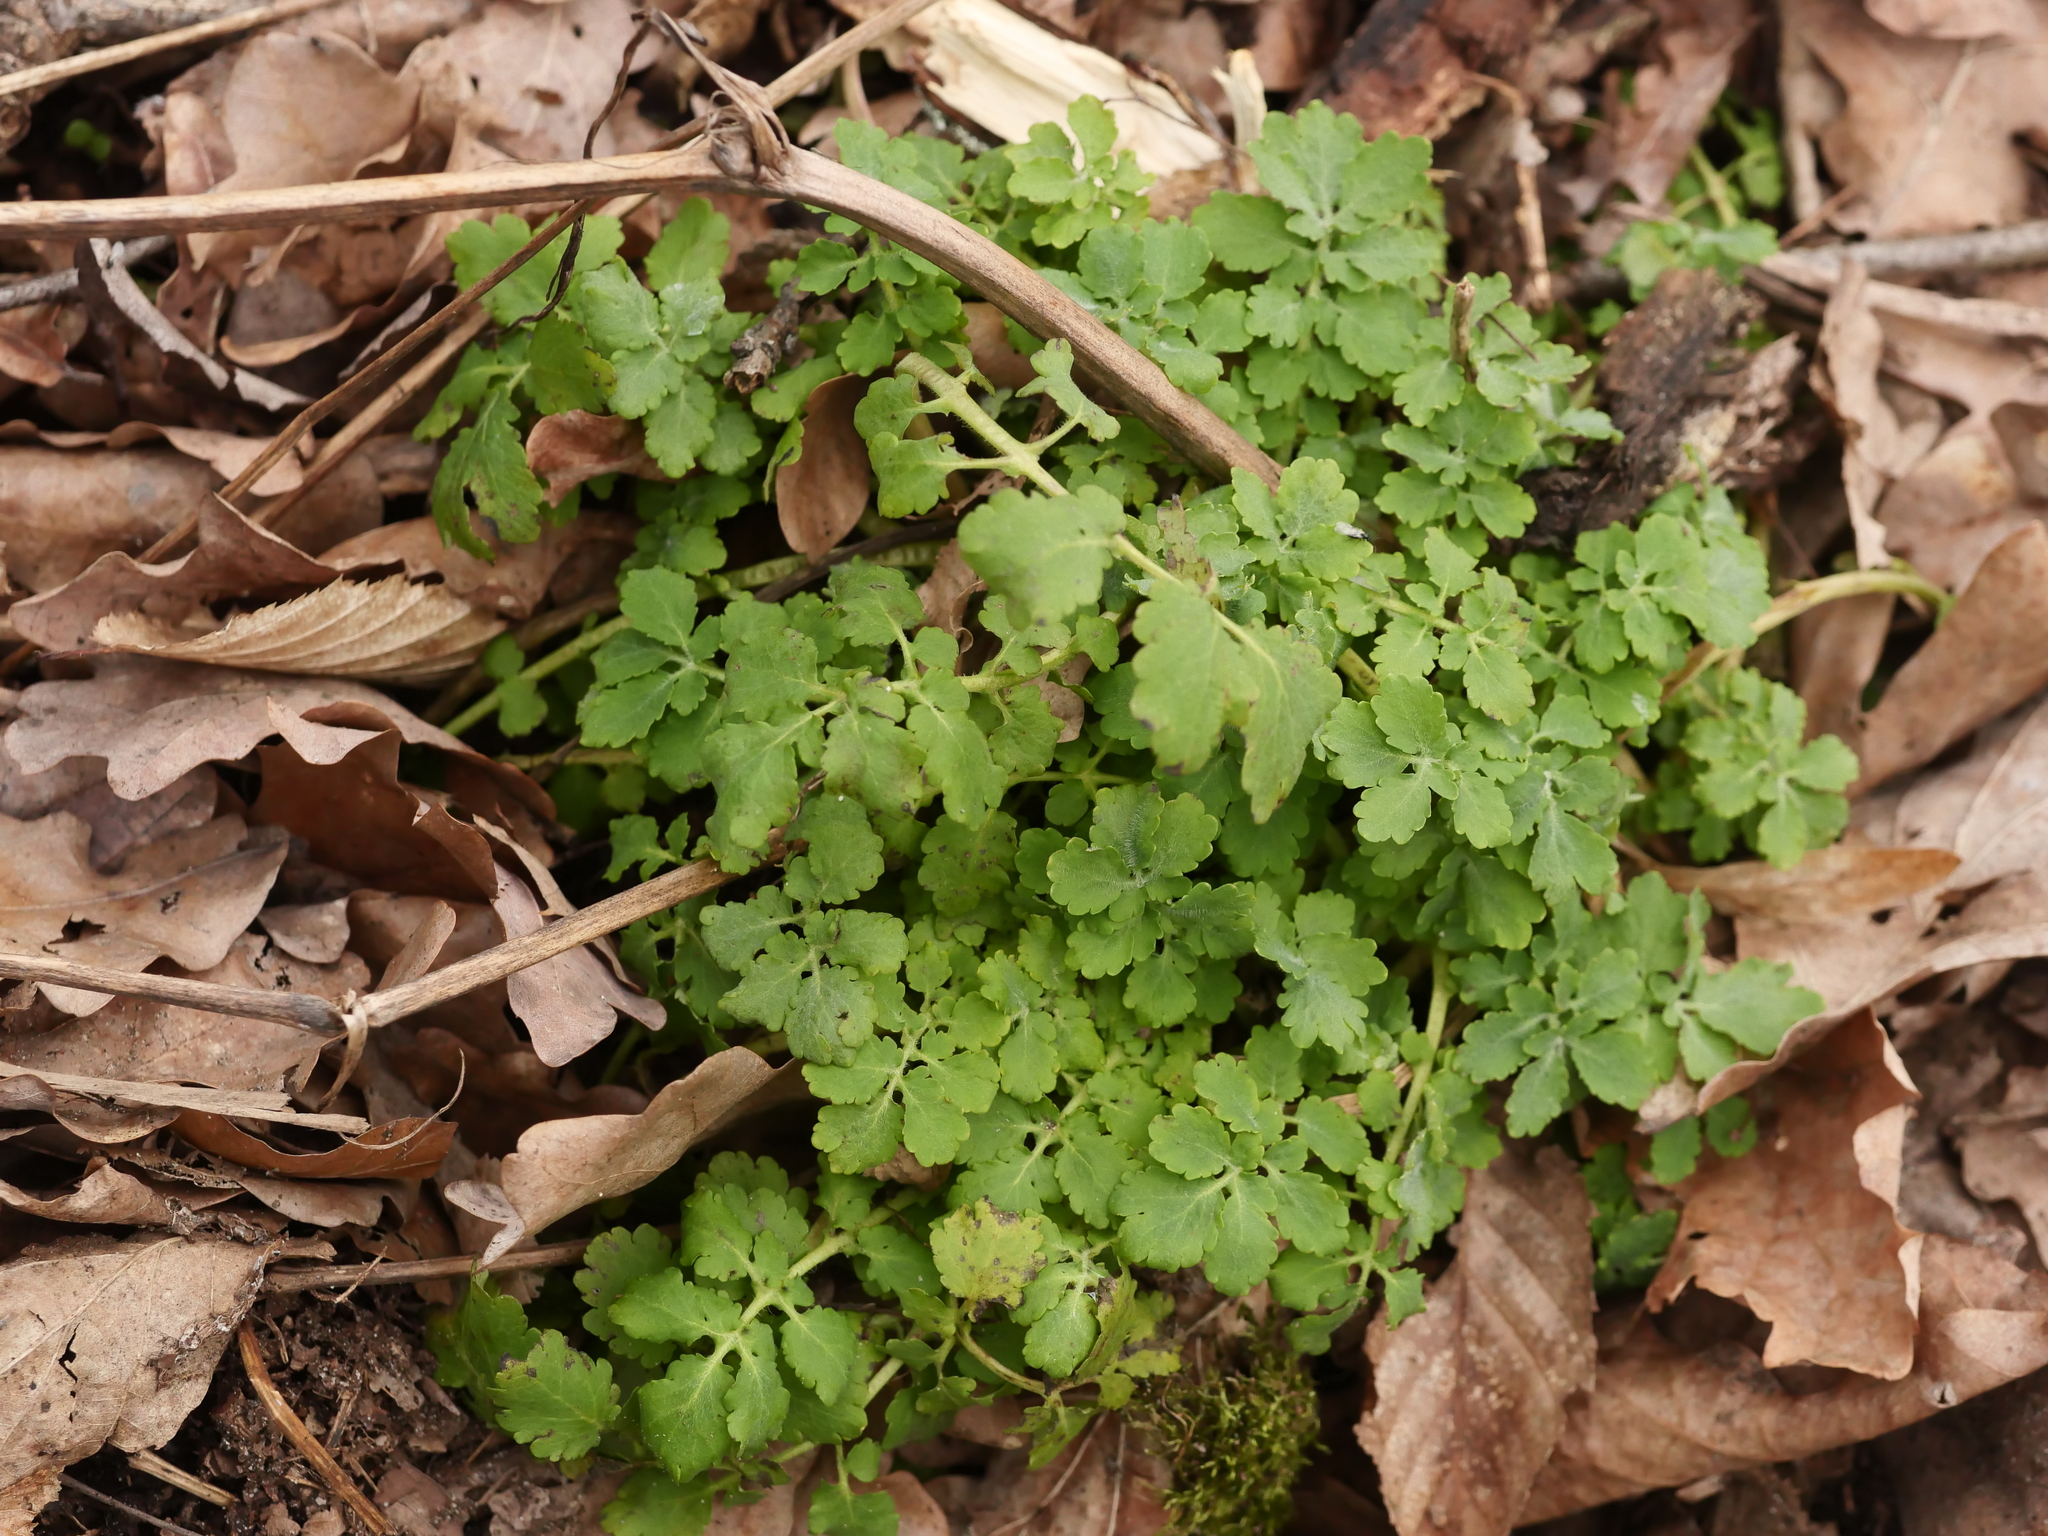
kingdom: Plantae
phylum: Tracheophyta
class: Magnoliopsida
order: Ranunculales
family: Papaveraceae
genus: Chelidonium
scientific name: Chelidonium majus
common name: Greater celandine
